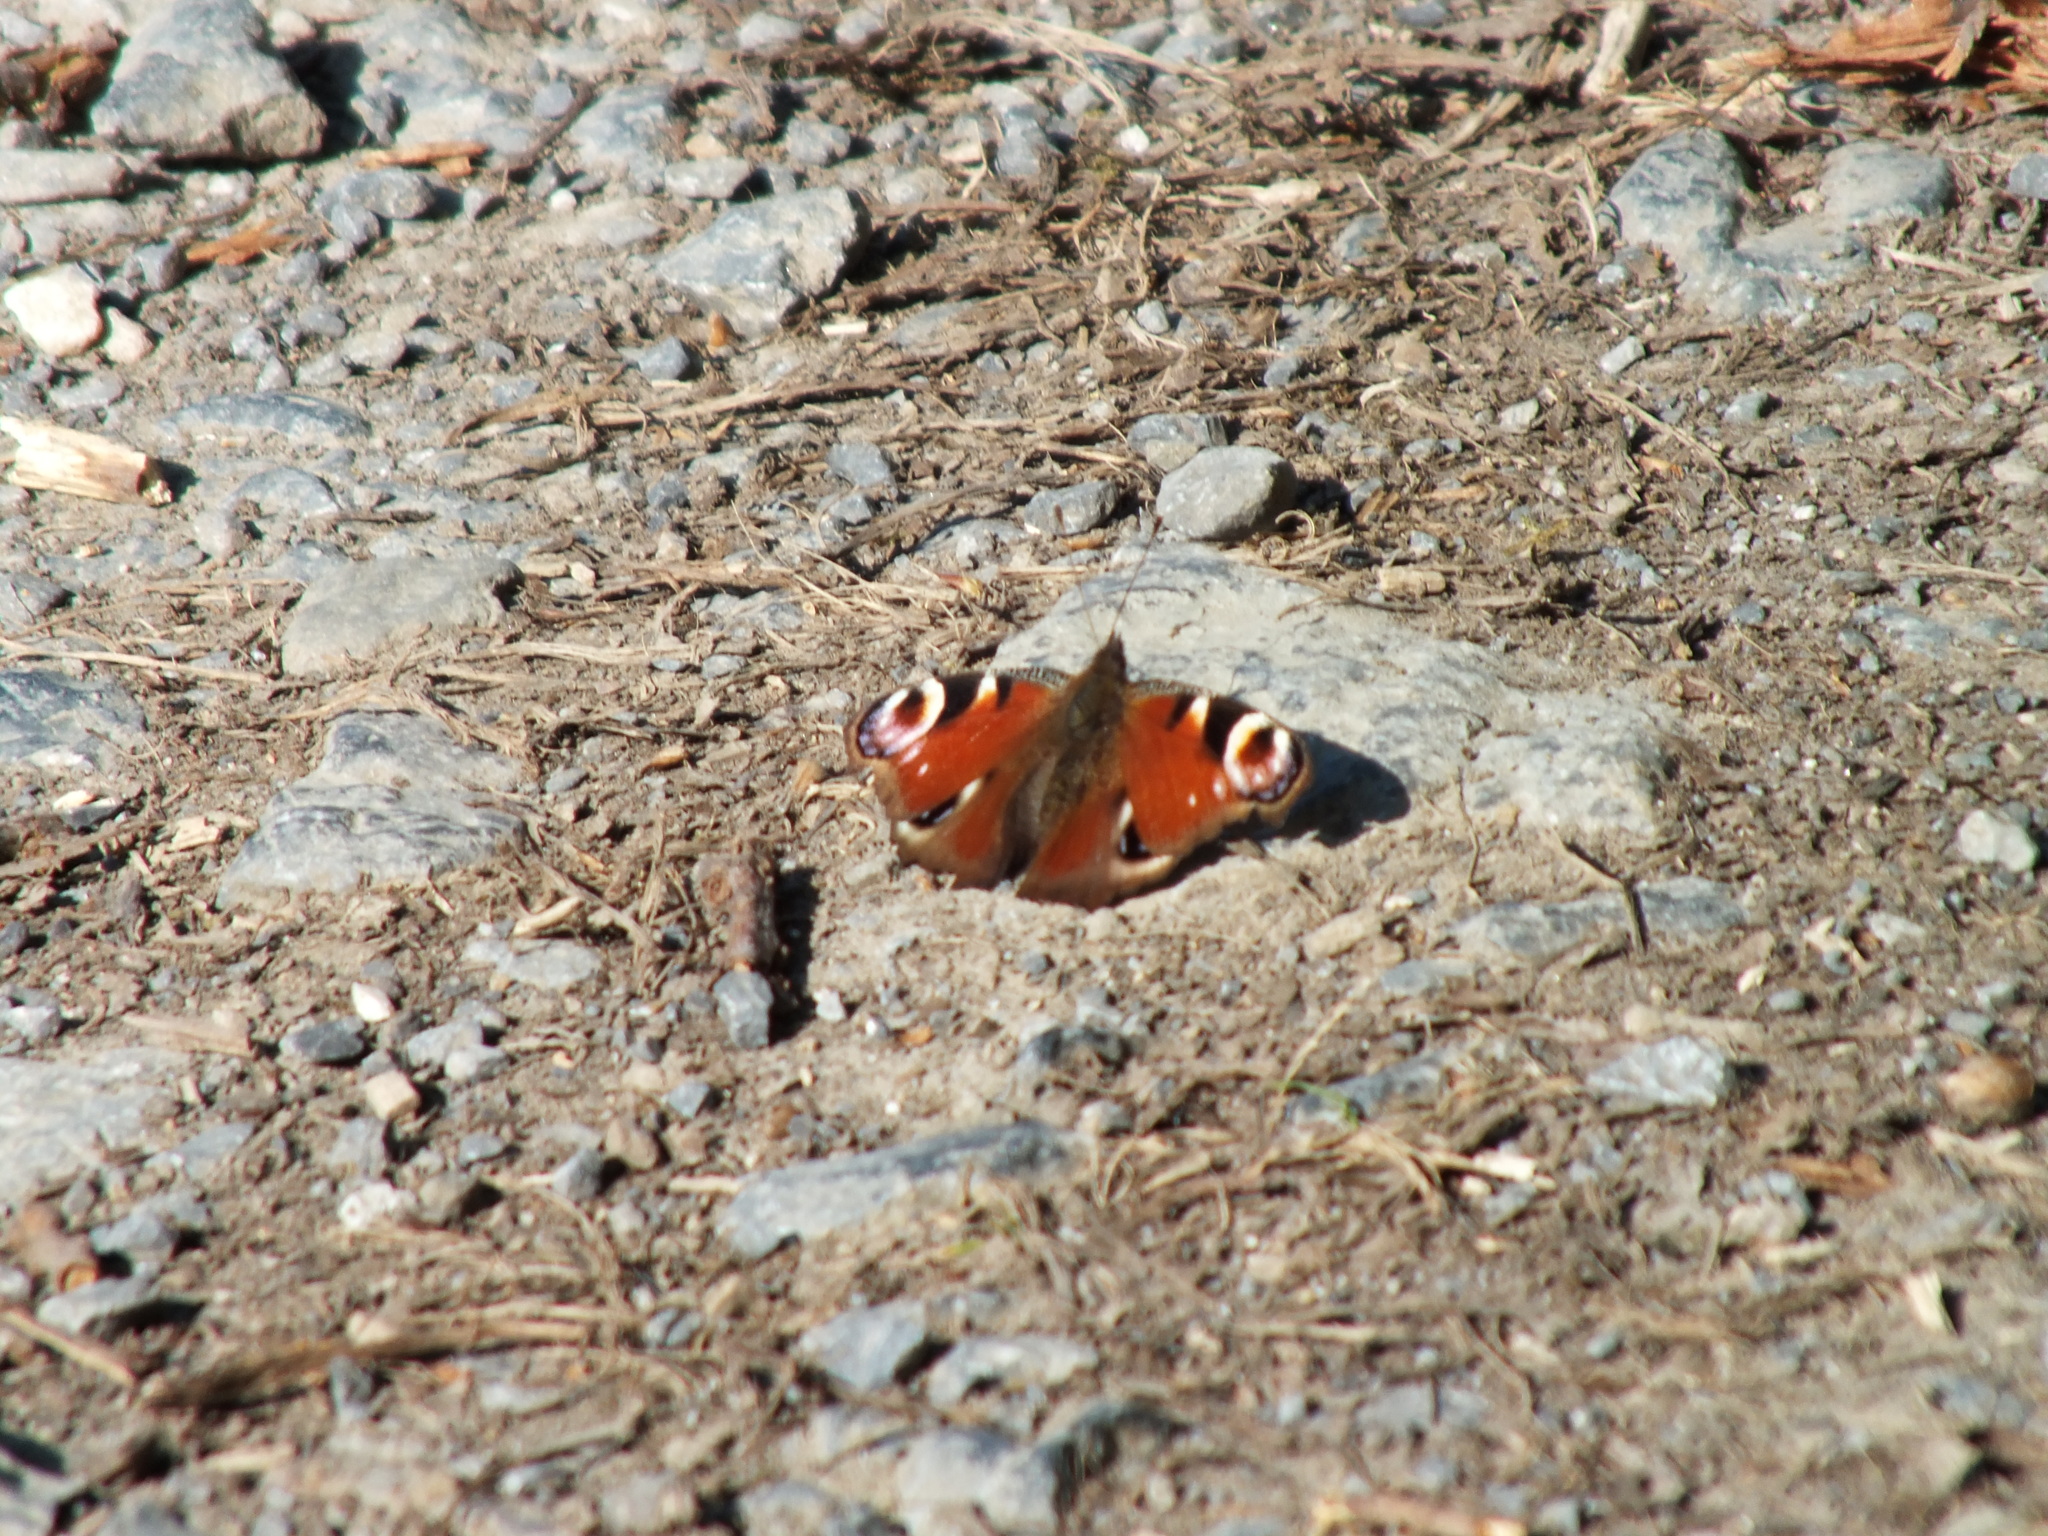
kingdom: Animalia
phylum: Arthropoda
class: Insecta
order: Lepidoptera
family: Nymphalidae
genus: Aglais
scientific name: Aglais io
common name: Peacock
